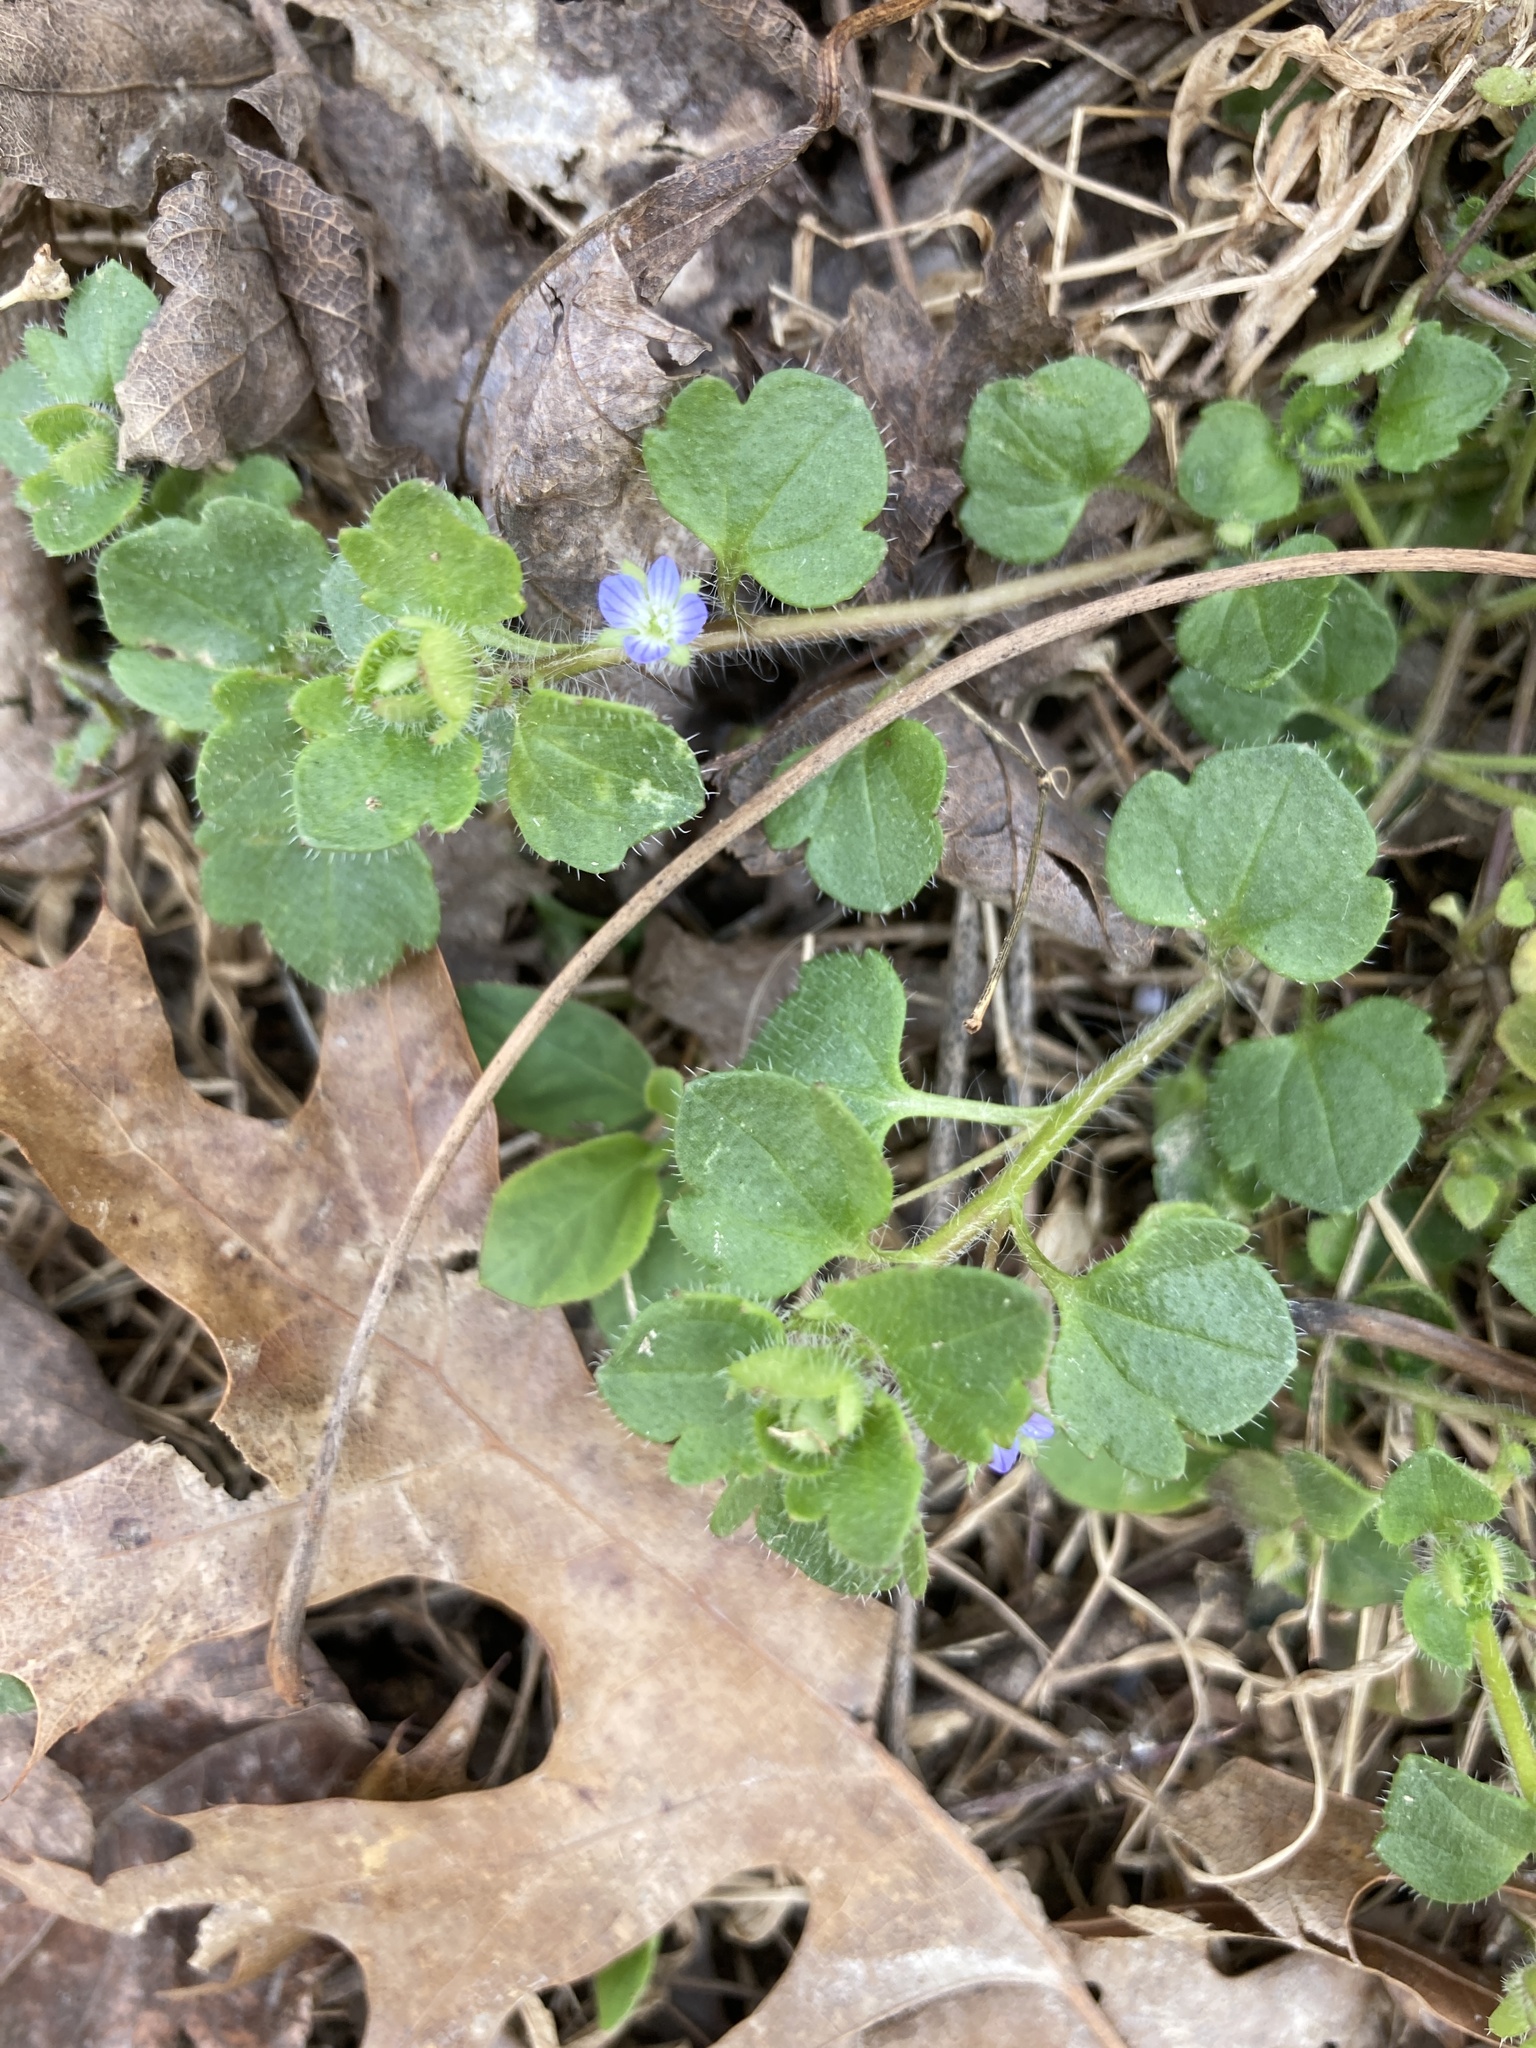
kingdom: Plantae
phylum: Tracheophyta
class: Magnoliopsida
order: Lamiales
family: Plantaginaceae
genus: Veronica
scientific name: Veronica hederifolia
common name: Ivy-leaved speedwell
